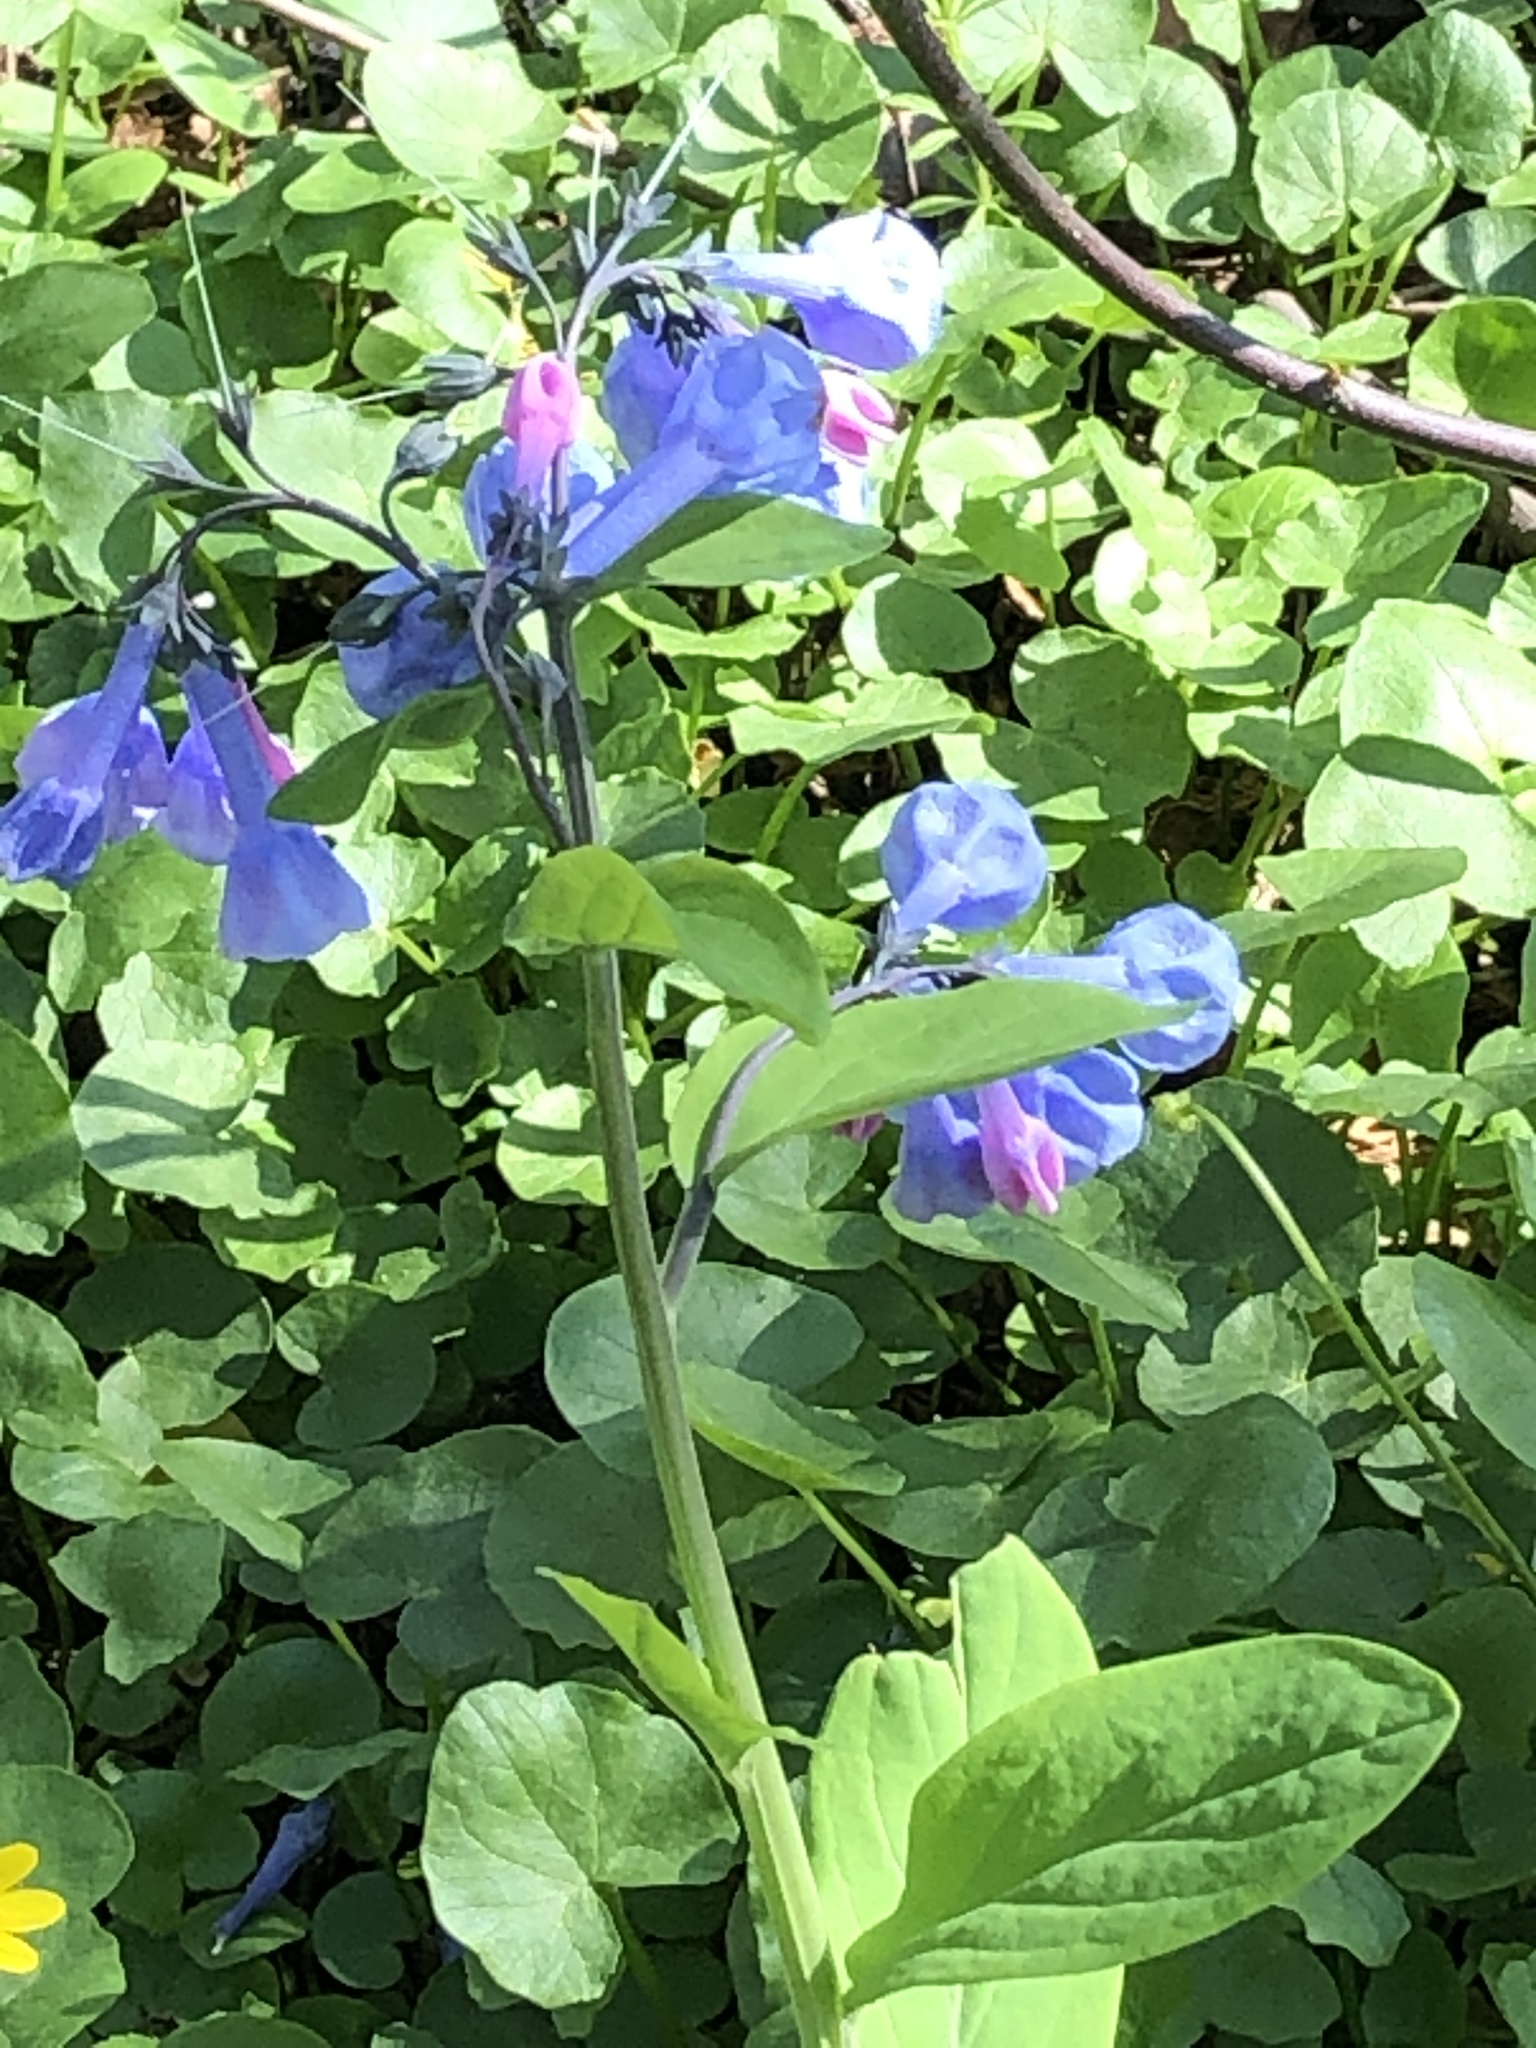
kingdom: Plantae
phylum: Tracheophyta
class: Magnoliopsida
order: Boraginales
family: Boraginaceae
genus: Mertensia
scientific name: Mertensia virginica
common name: Virginia bluebells
